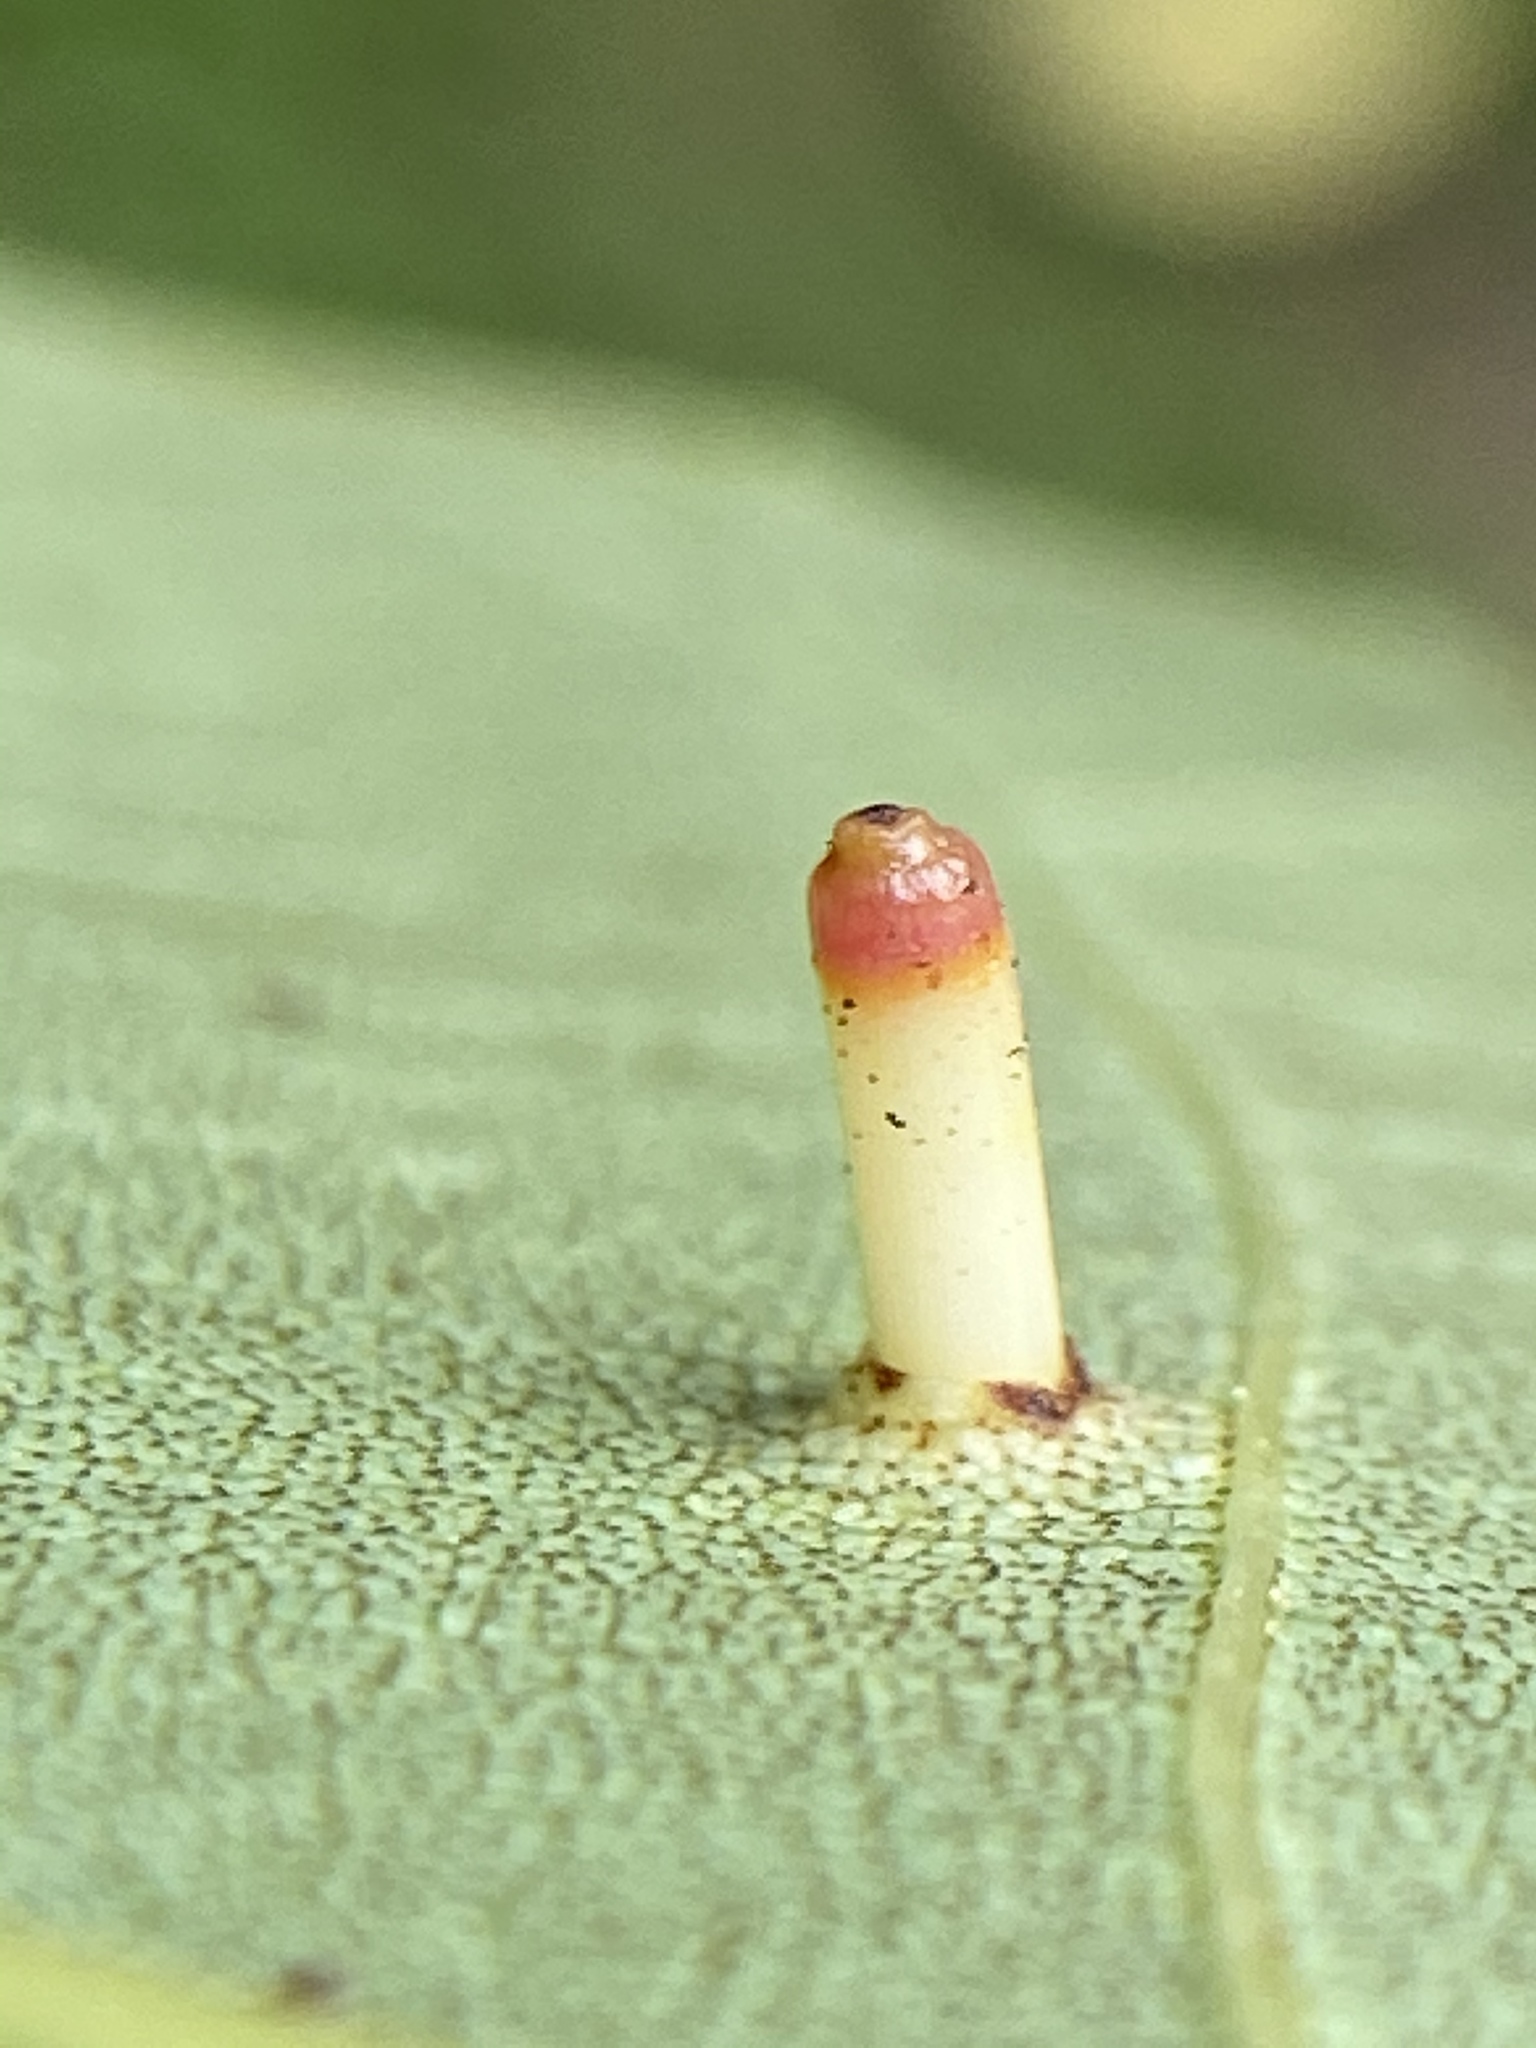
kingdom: Animalia
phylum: Arthropoda
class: Insecta
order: Diptera
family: Cecidomyiidae
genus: Caryomyia
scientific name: Caryomyia tubicola
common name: Hickory bullet gall midge
